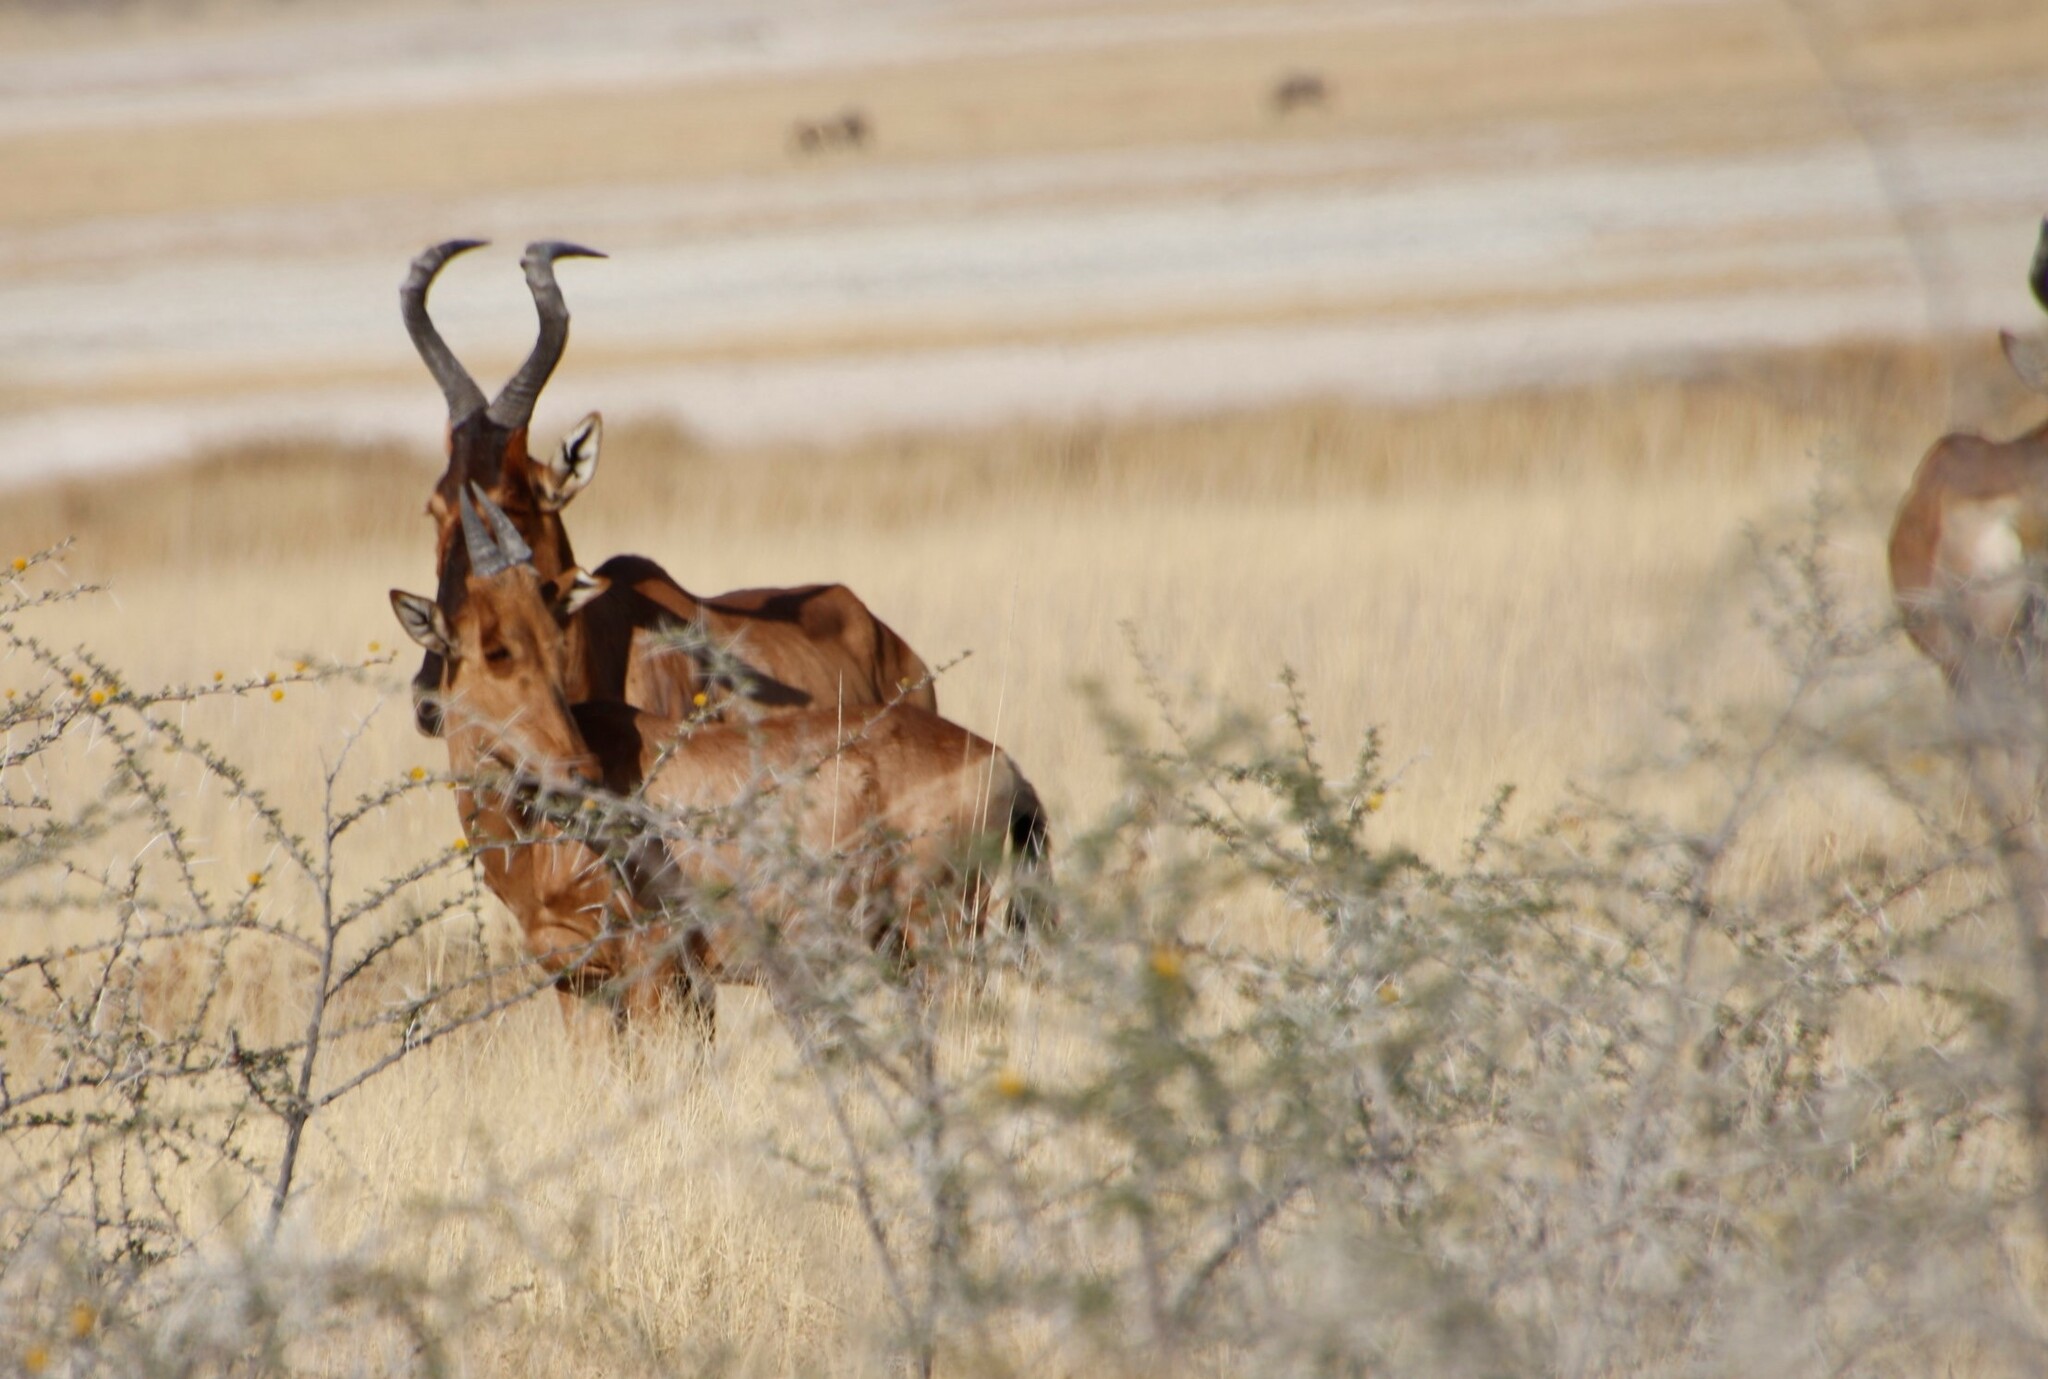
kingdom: Animalia
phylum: Chordata
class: Mammalia
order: Artiodactyla
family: Bovidae
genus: Alcelaphus
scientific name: Alcelaphus caama
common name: Red hartebeest
